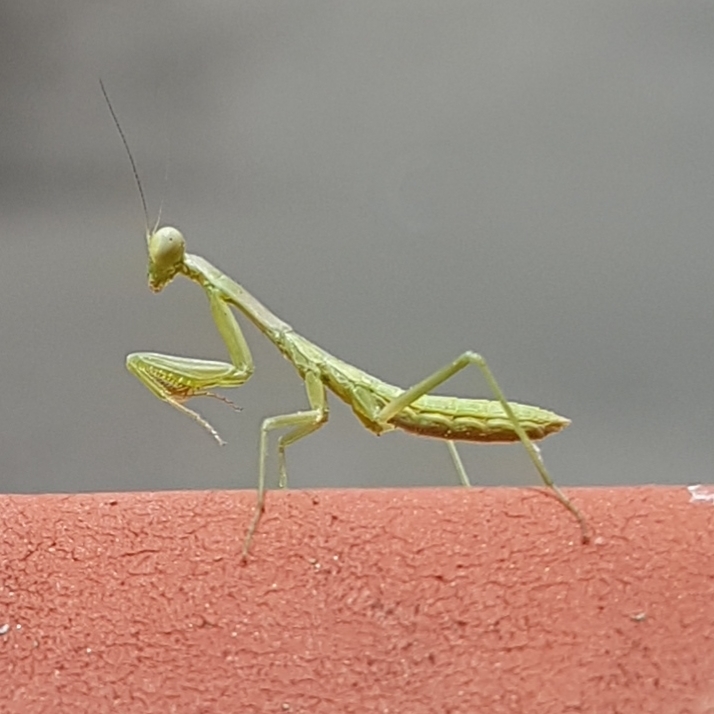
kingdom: Animalia
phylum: Arthropoda
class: Insecta
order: Mantodea
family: Eremiaphilidae
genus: Iris
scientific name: Iris oratoria
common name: Mediterranean mantis
